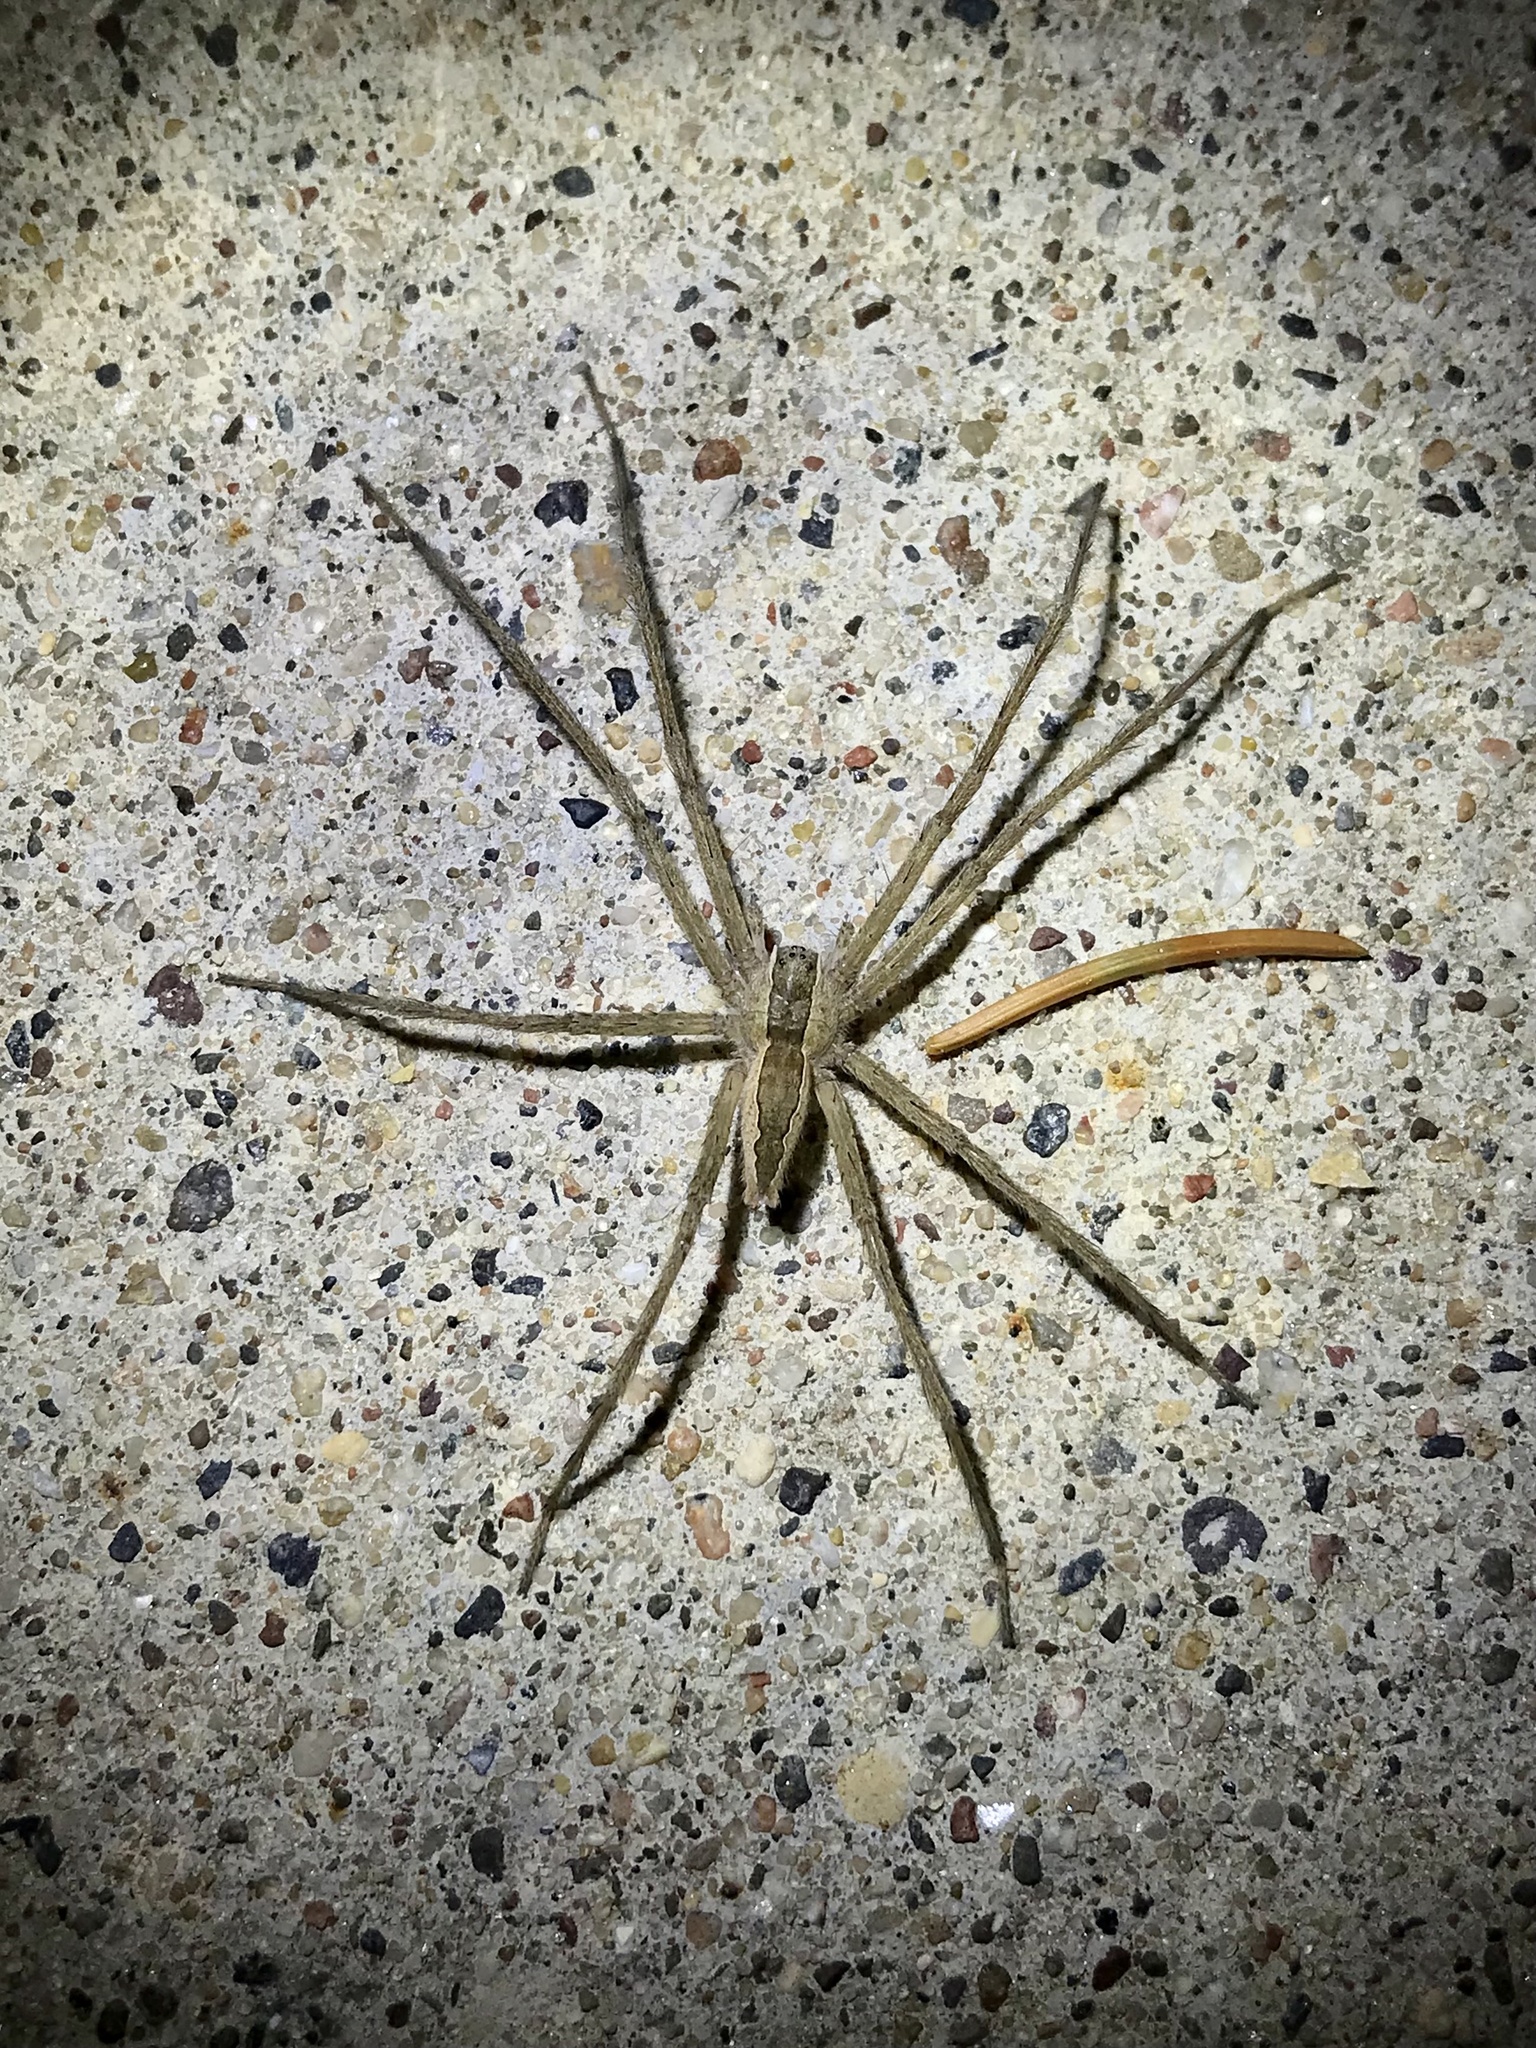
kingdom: Animalia
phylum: Arthropoda
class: Arachnida
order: Araneae
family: Pisauridae
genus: Pisaurina
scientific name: Pisaurina mira
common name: American nursery web spider
